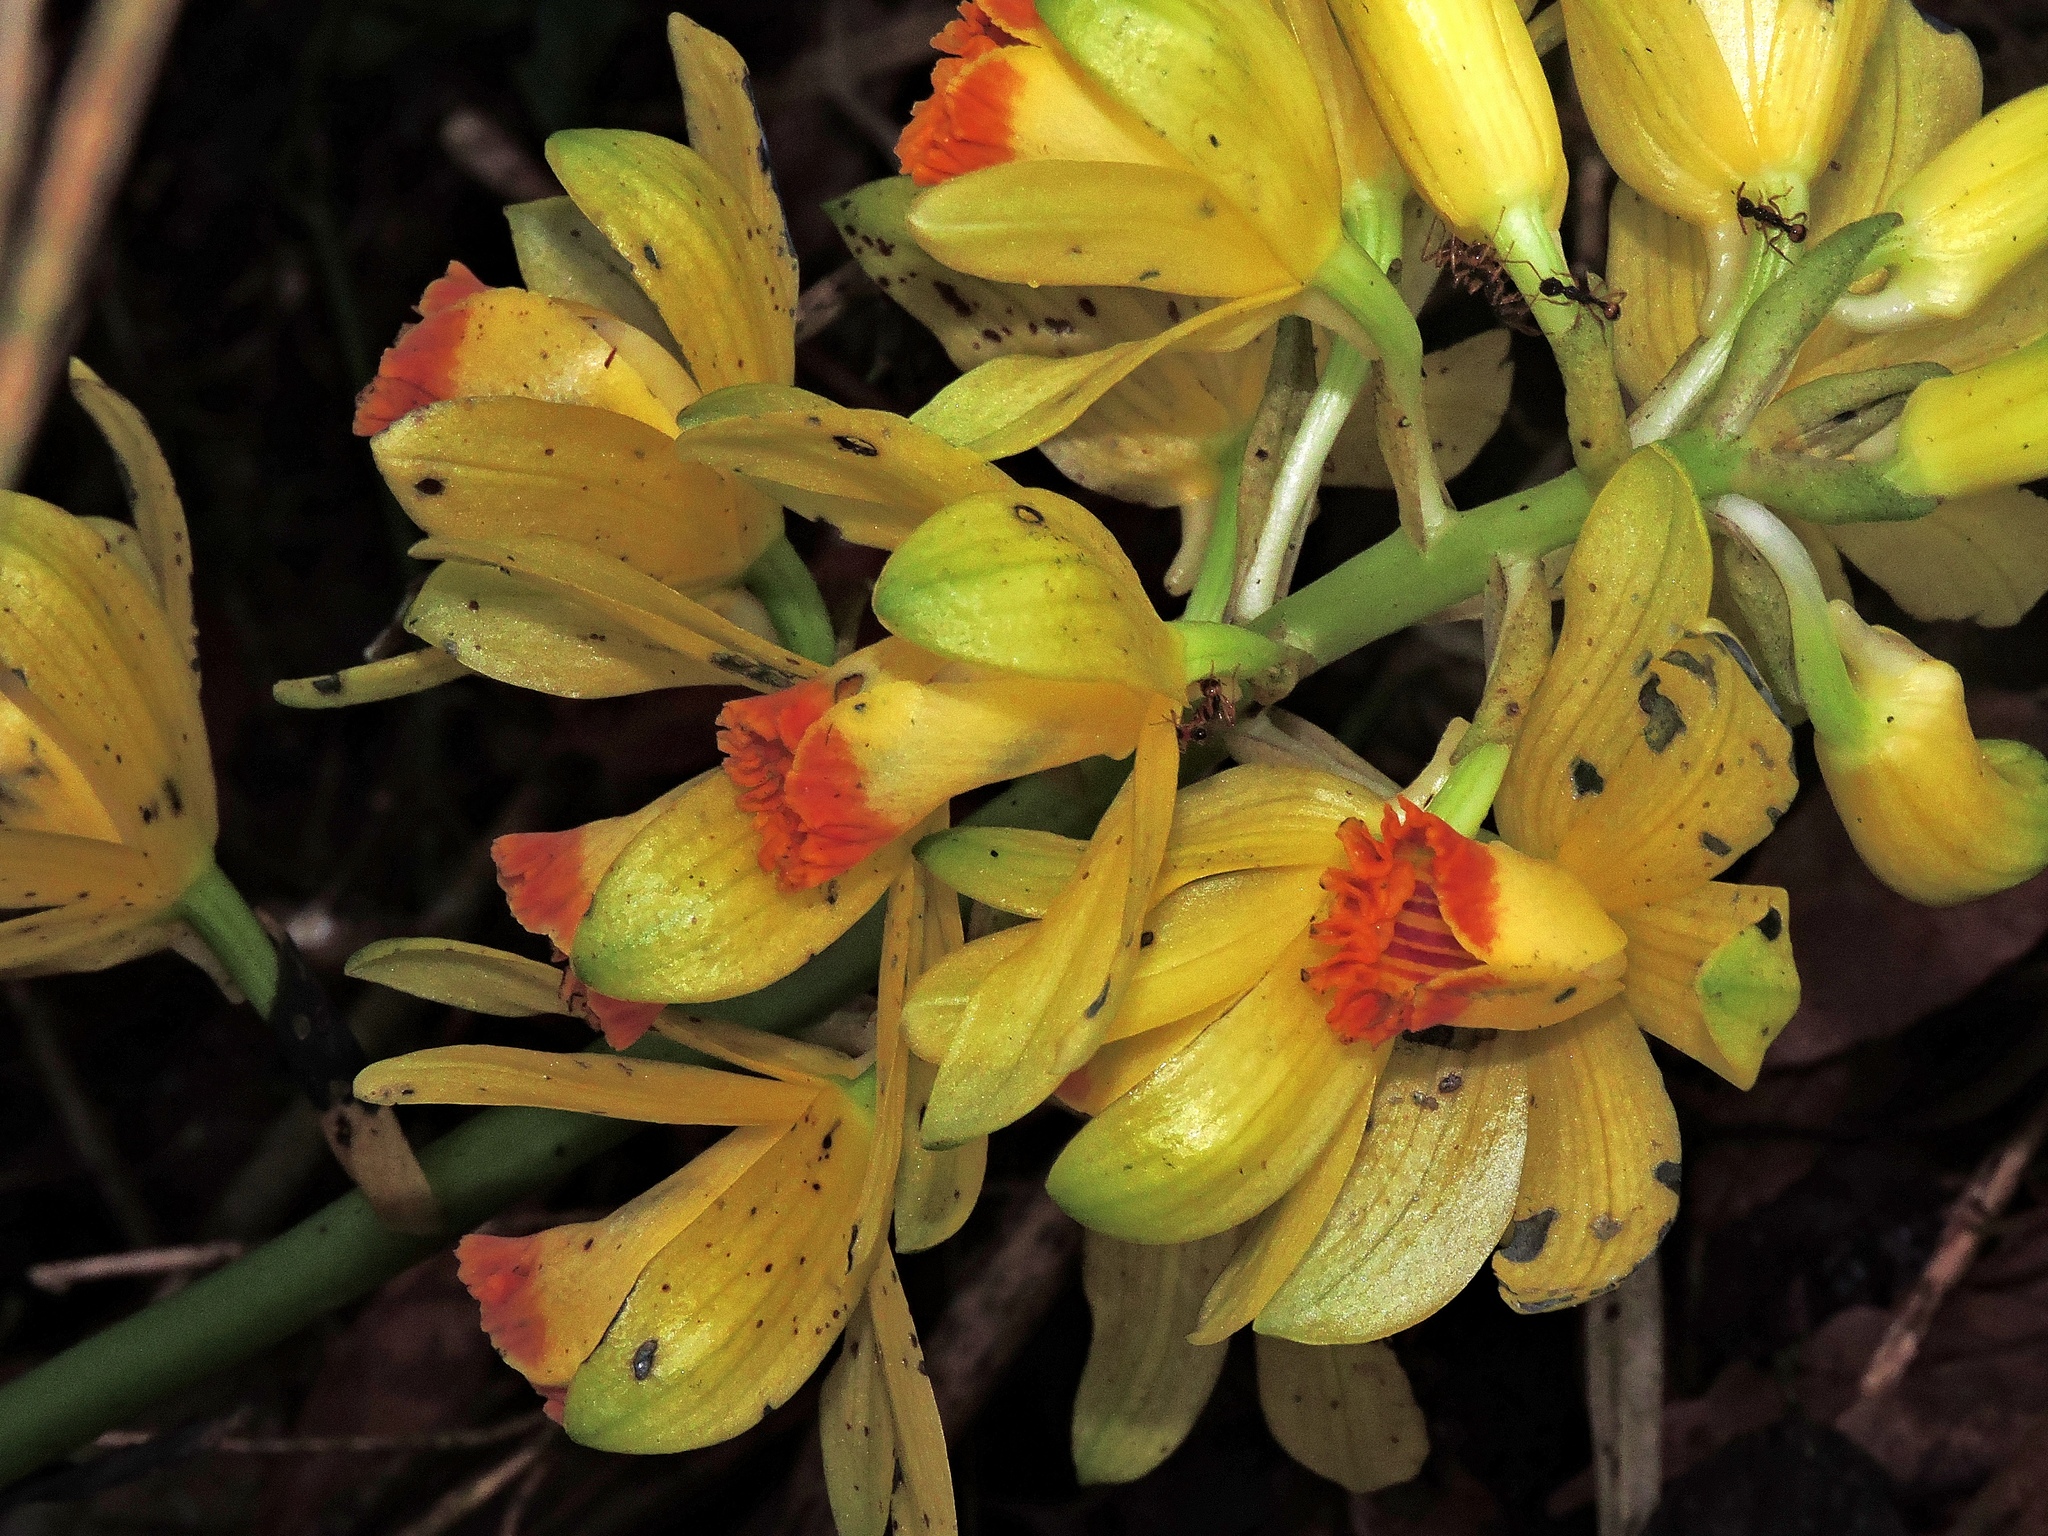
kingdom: Plantae
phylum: Tracheophyta
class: Liliopsida
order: Asparagales
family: Orchidaceae
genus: Calanthe
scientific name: Calanthe woodfordii
